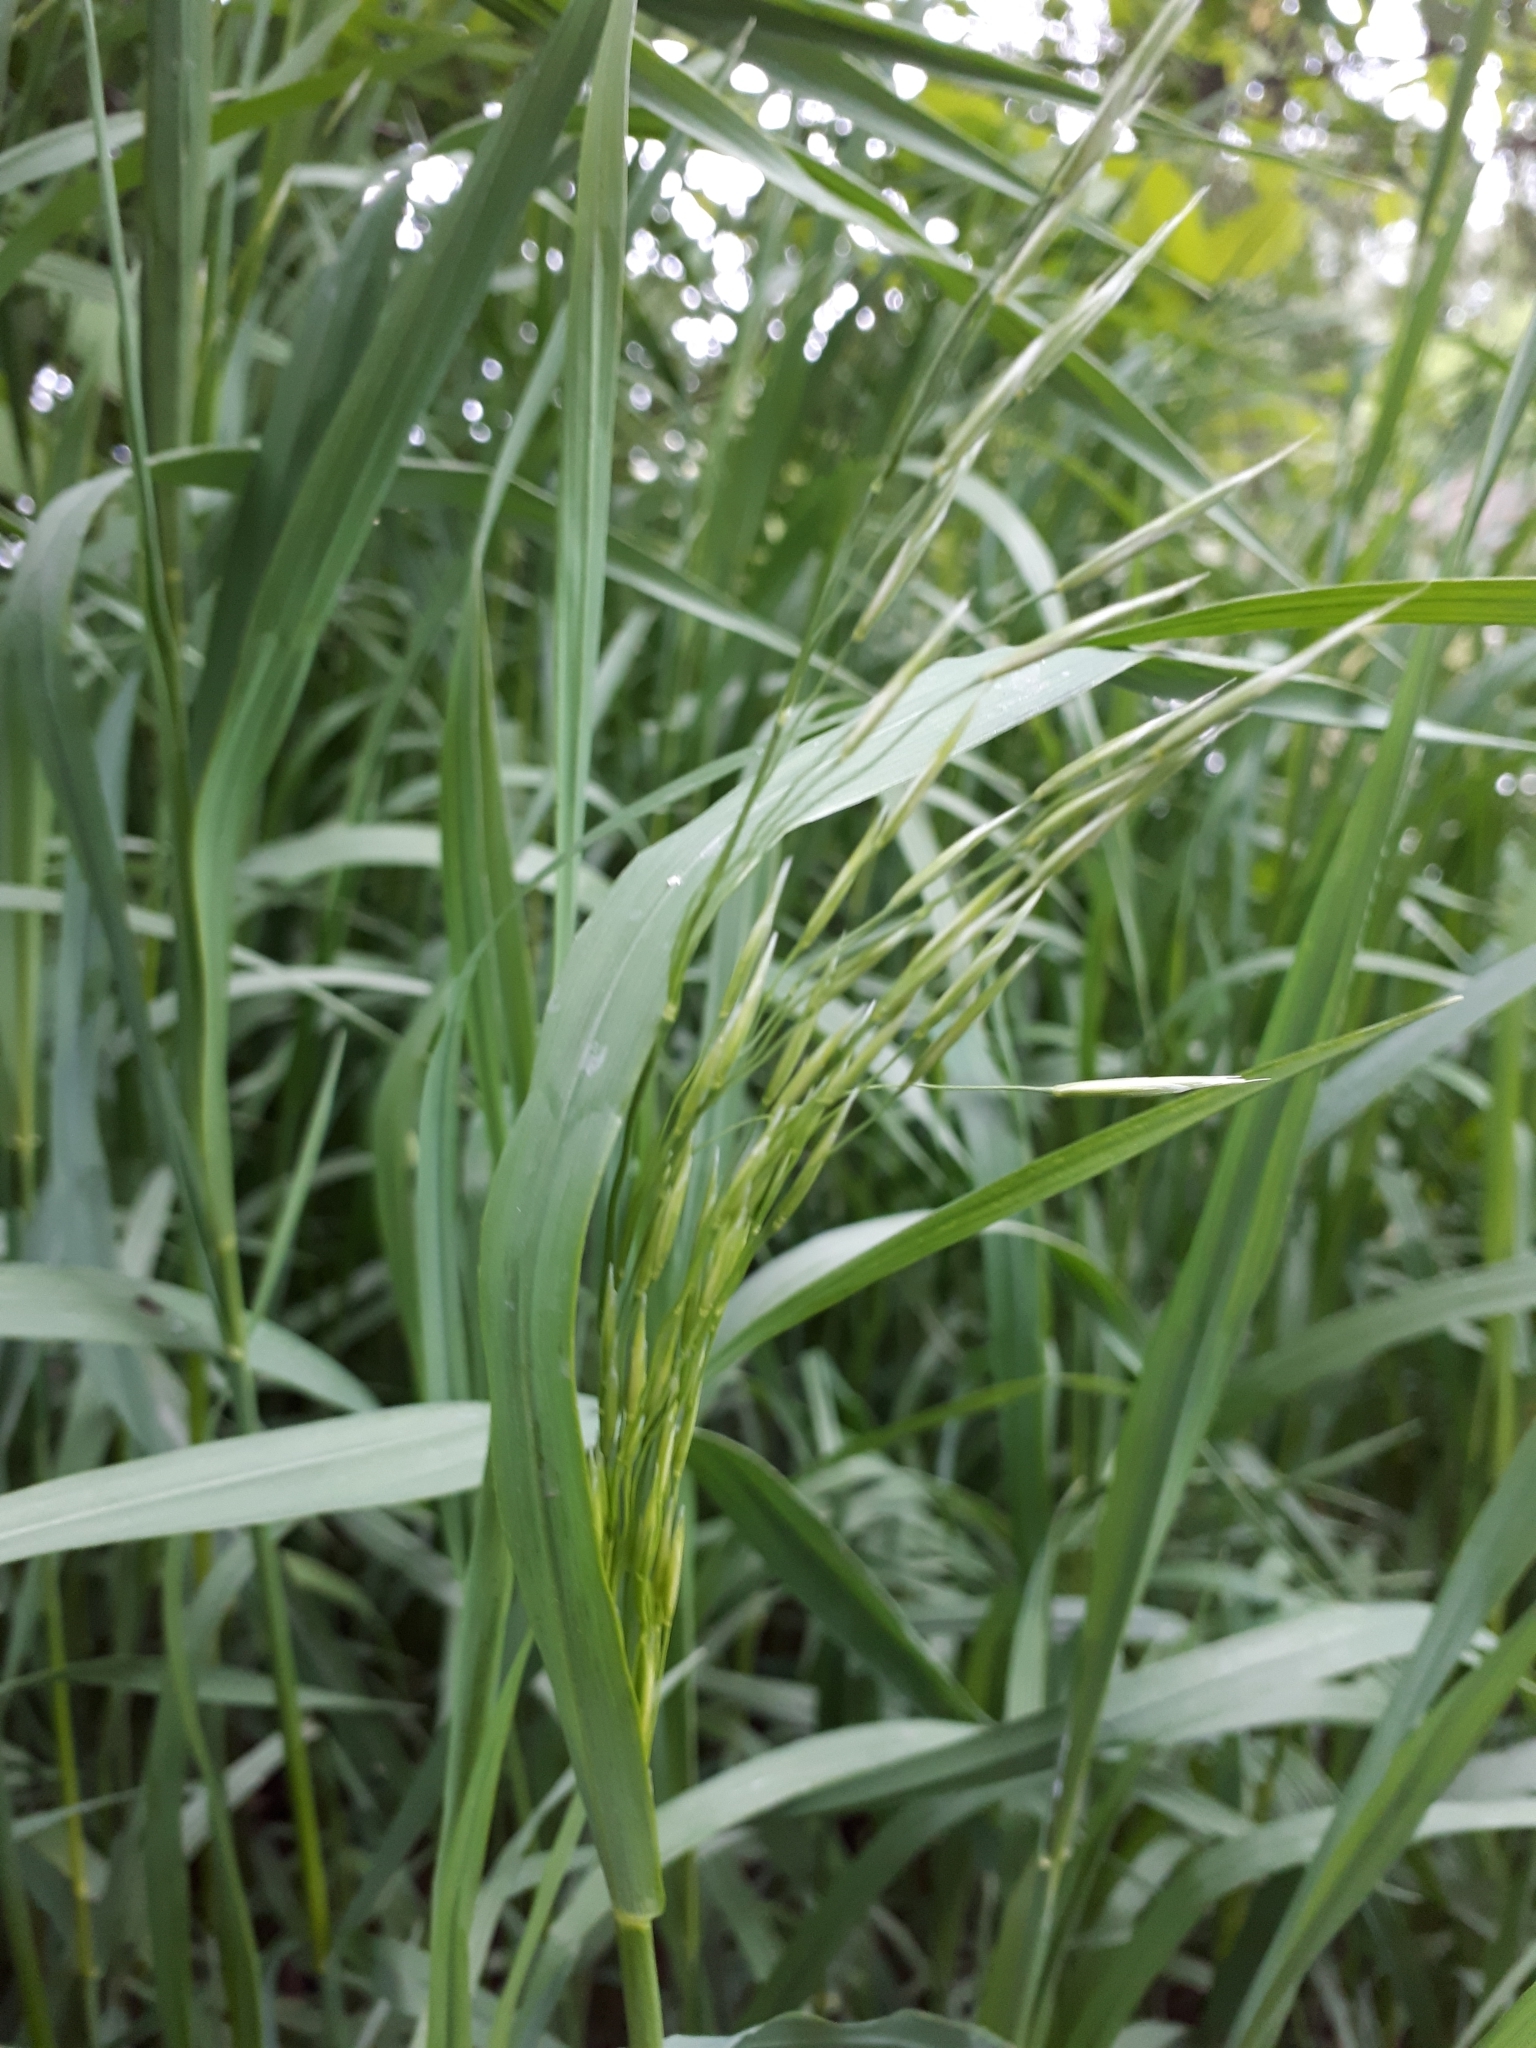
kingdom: Plantae
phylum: Tracheophyta
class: Liliopsida
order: Poales
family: Poaceae
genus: Bromus
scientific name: Bromus inermis
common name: Smooth brome
